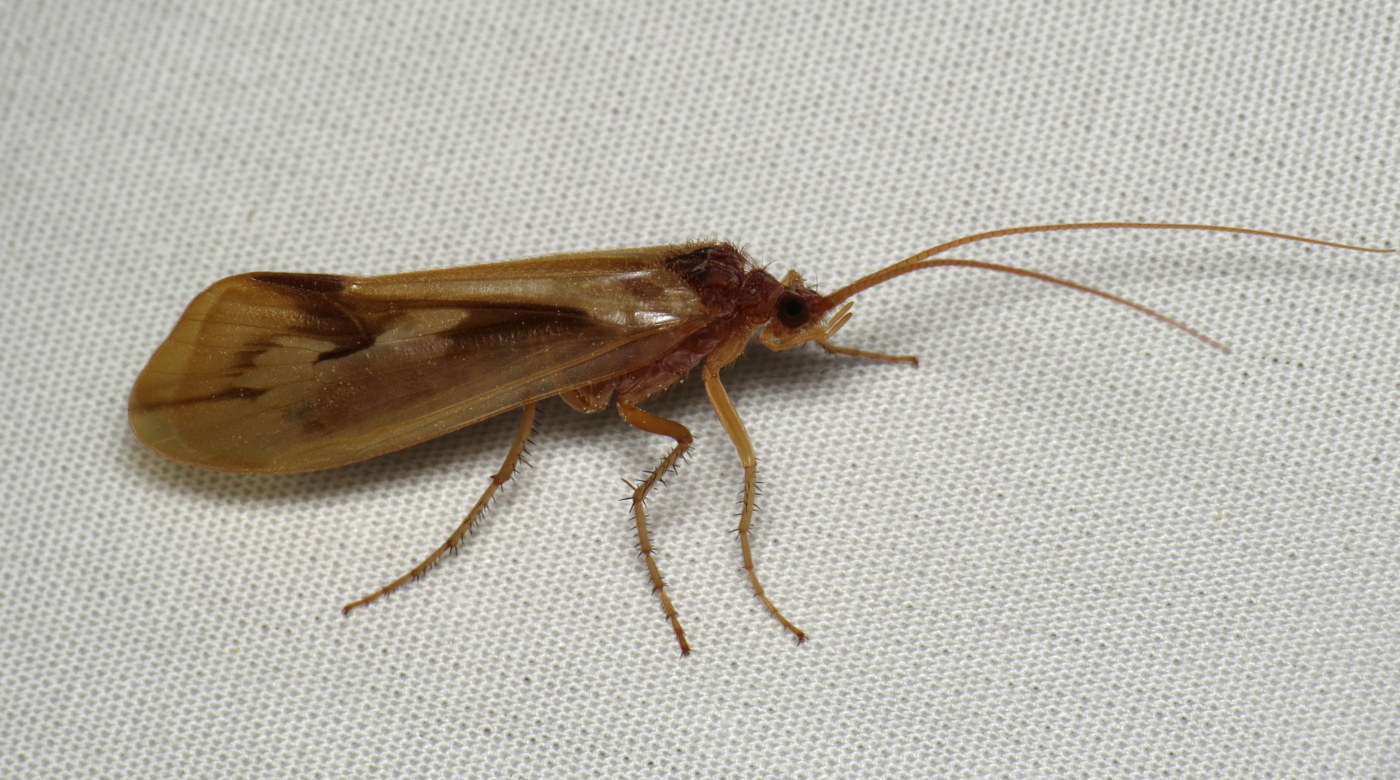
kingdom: Animalia
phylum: Arthropoda
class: Insecta
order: Trichoptera
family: Limnephilidae
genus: Platycentropus
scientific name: Platycentropus radiatus
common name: Chocolate-and-cream sedge
